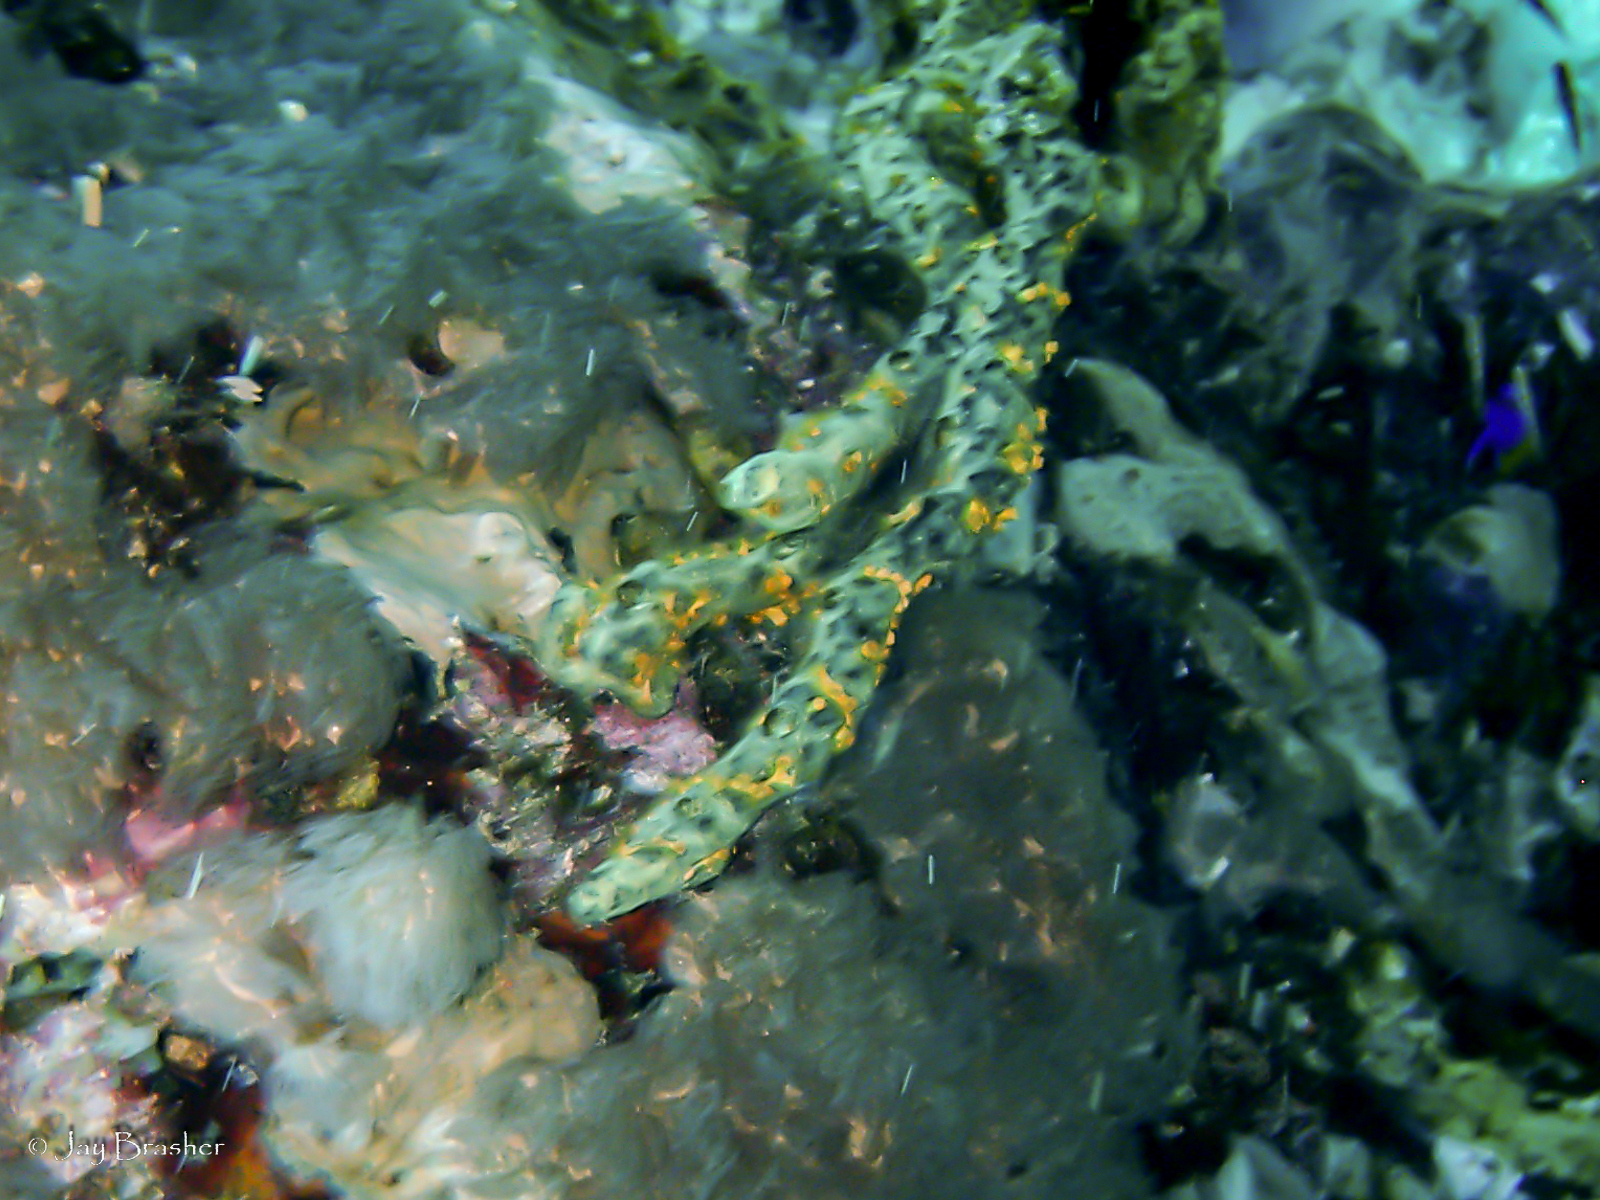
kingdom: Animalia
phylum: Porifera
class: Demospongiae
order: Poecilosclerida
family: Iotrochotidae
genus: Iotrochota
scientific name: Iotrochota birotulata
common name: Purple bleeding sponge
